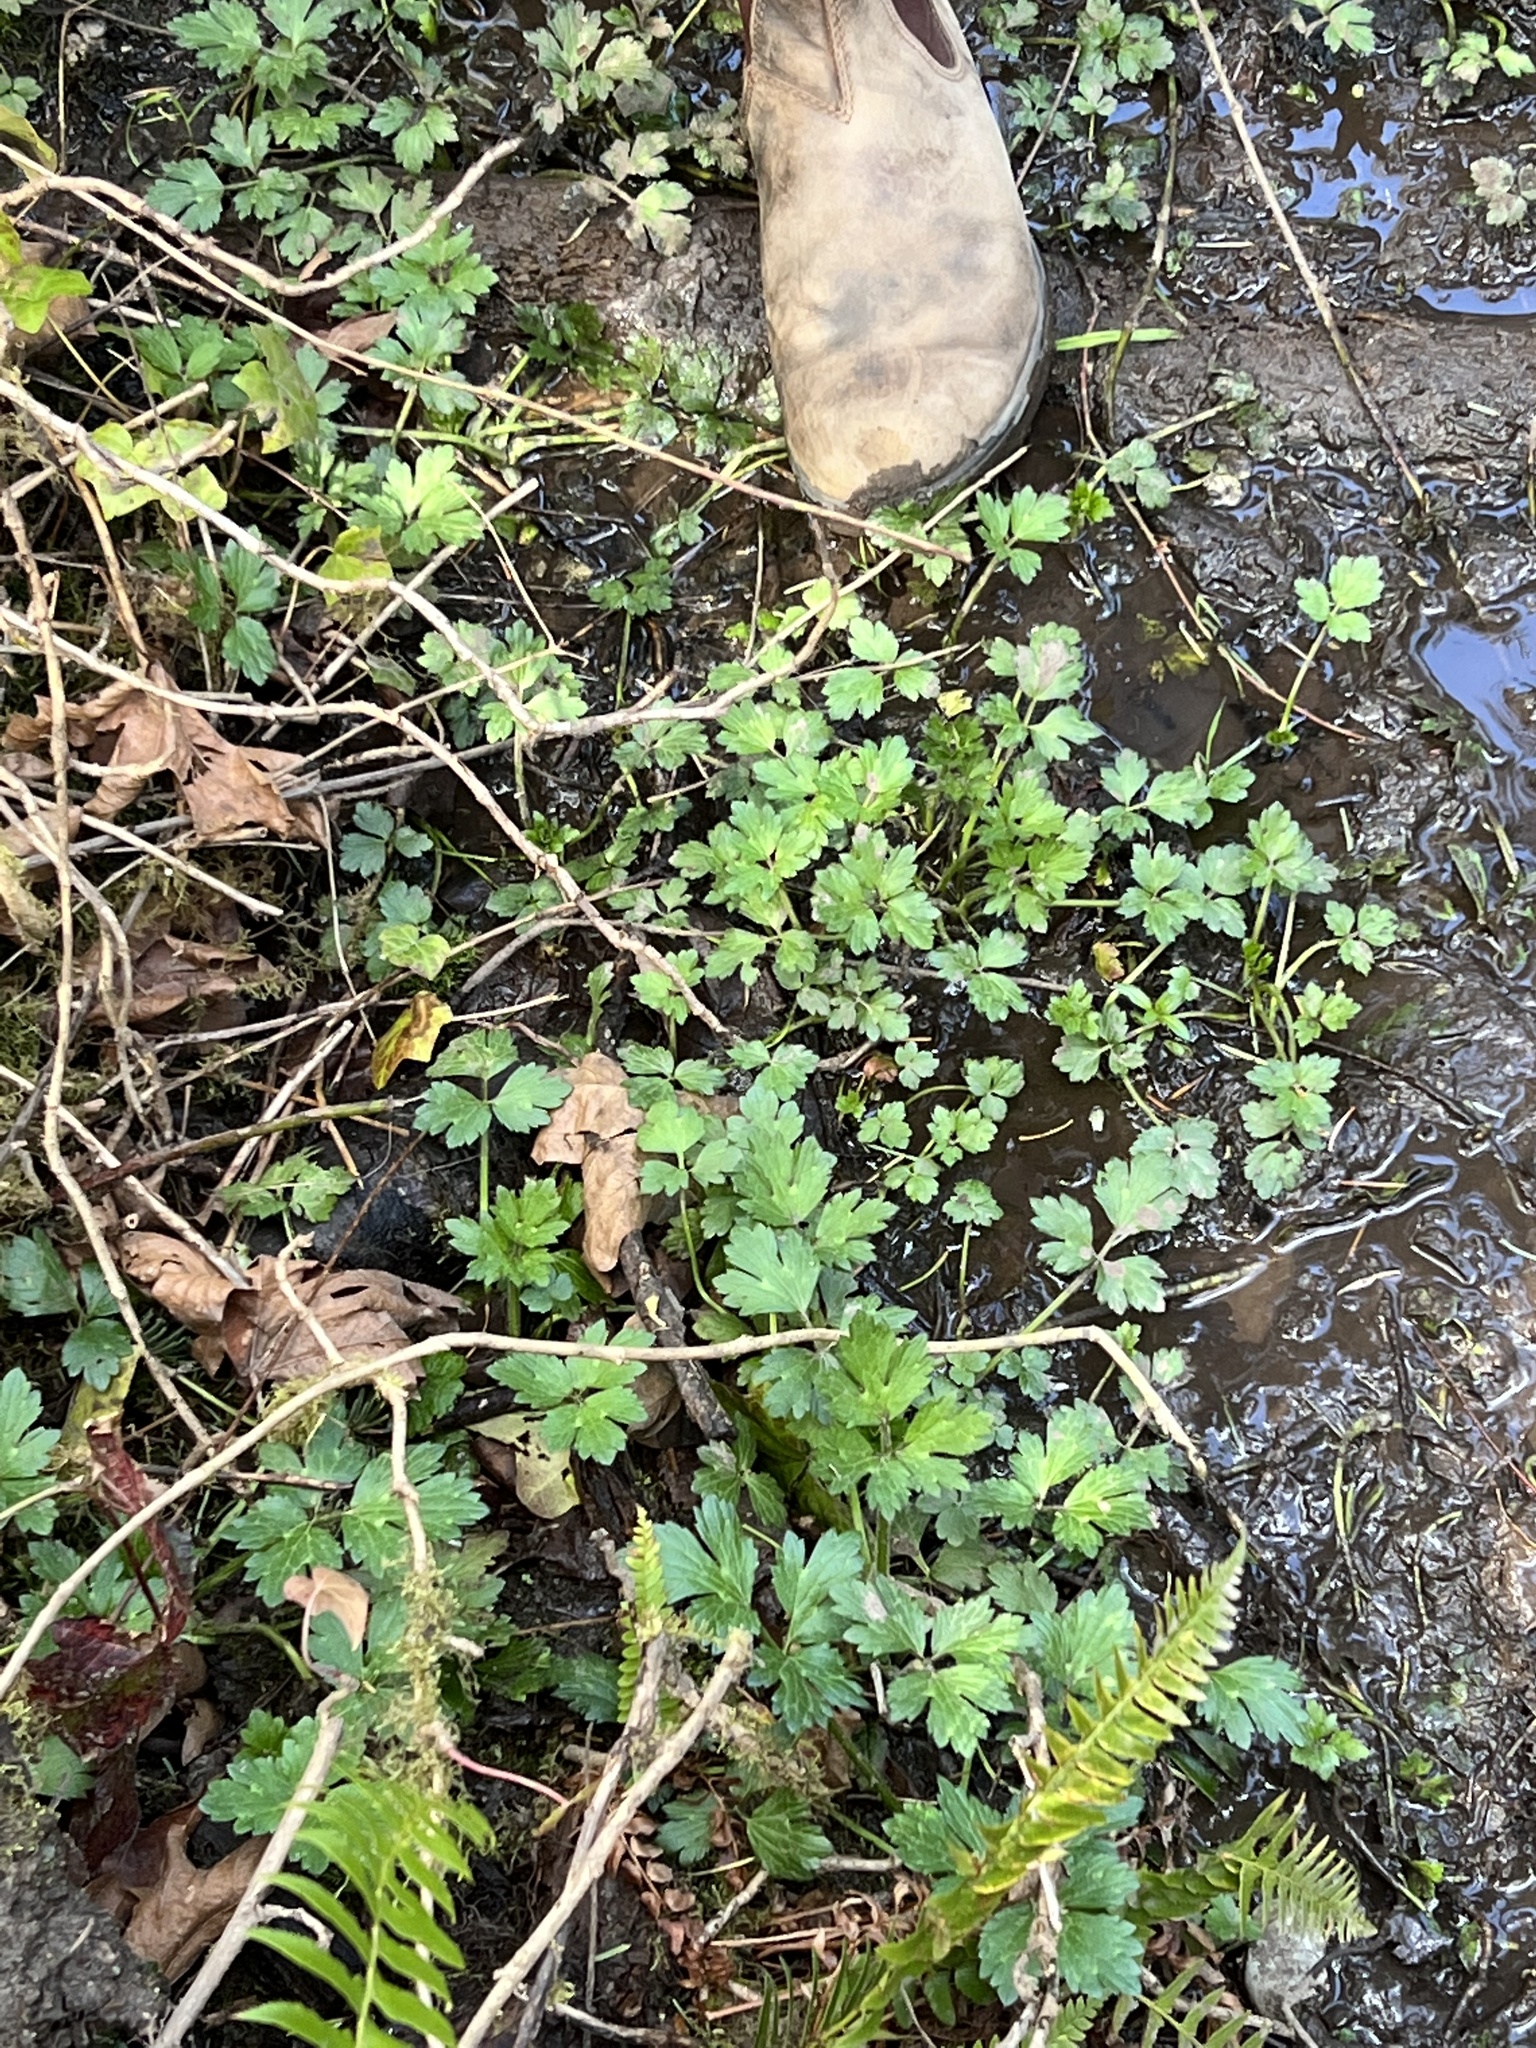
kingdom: Plantae
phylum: Tracheophyta
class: Magnoliopsida
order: Ranunculales
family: Ranunculaceae
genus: Ranunculus
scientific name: Ranunculus repens
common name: Creeping buttercup
